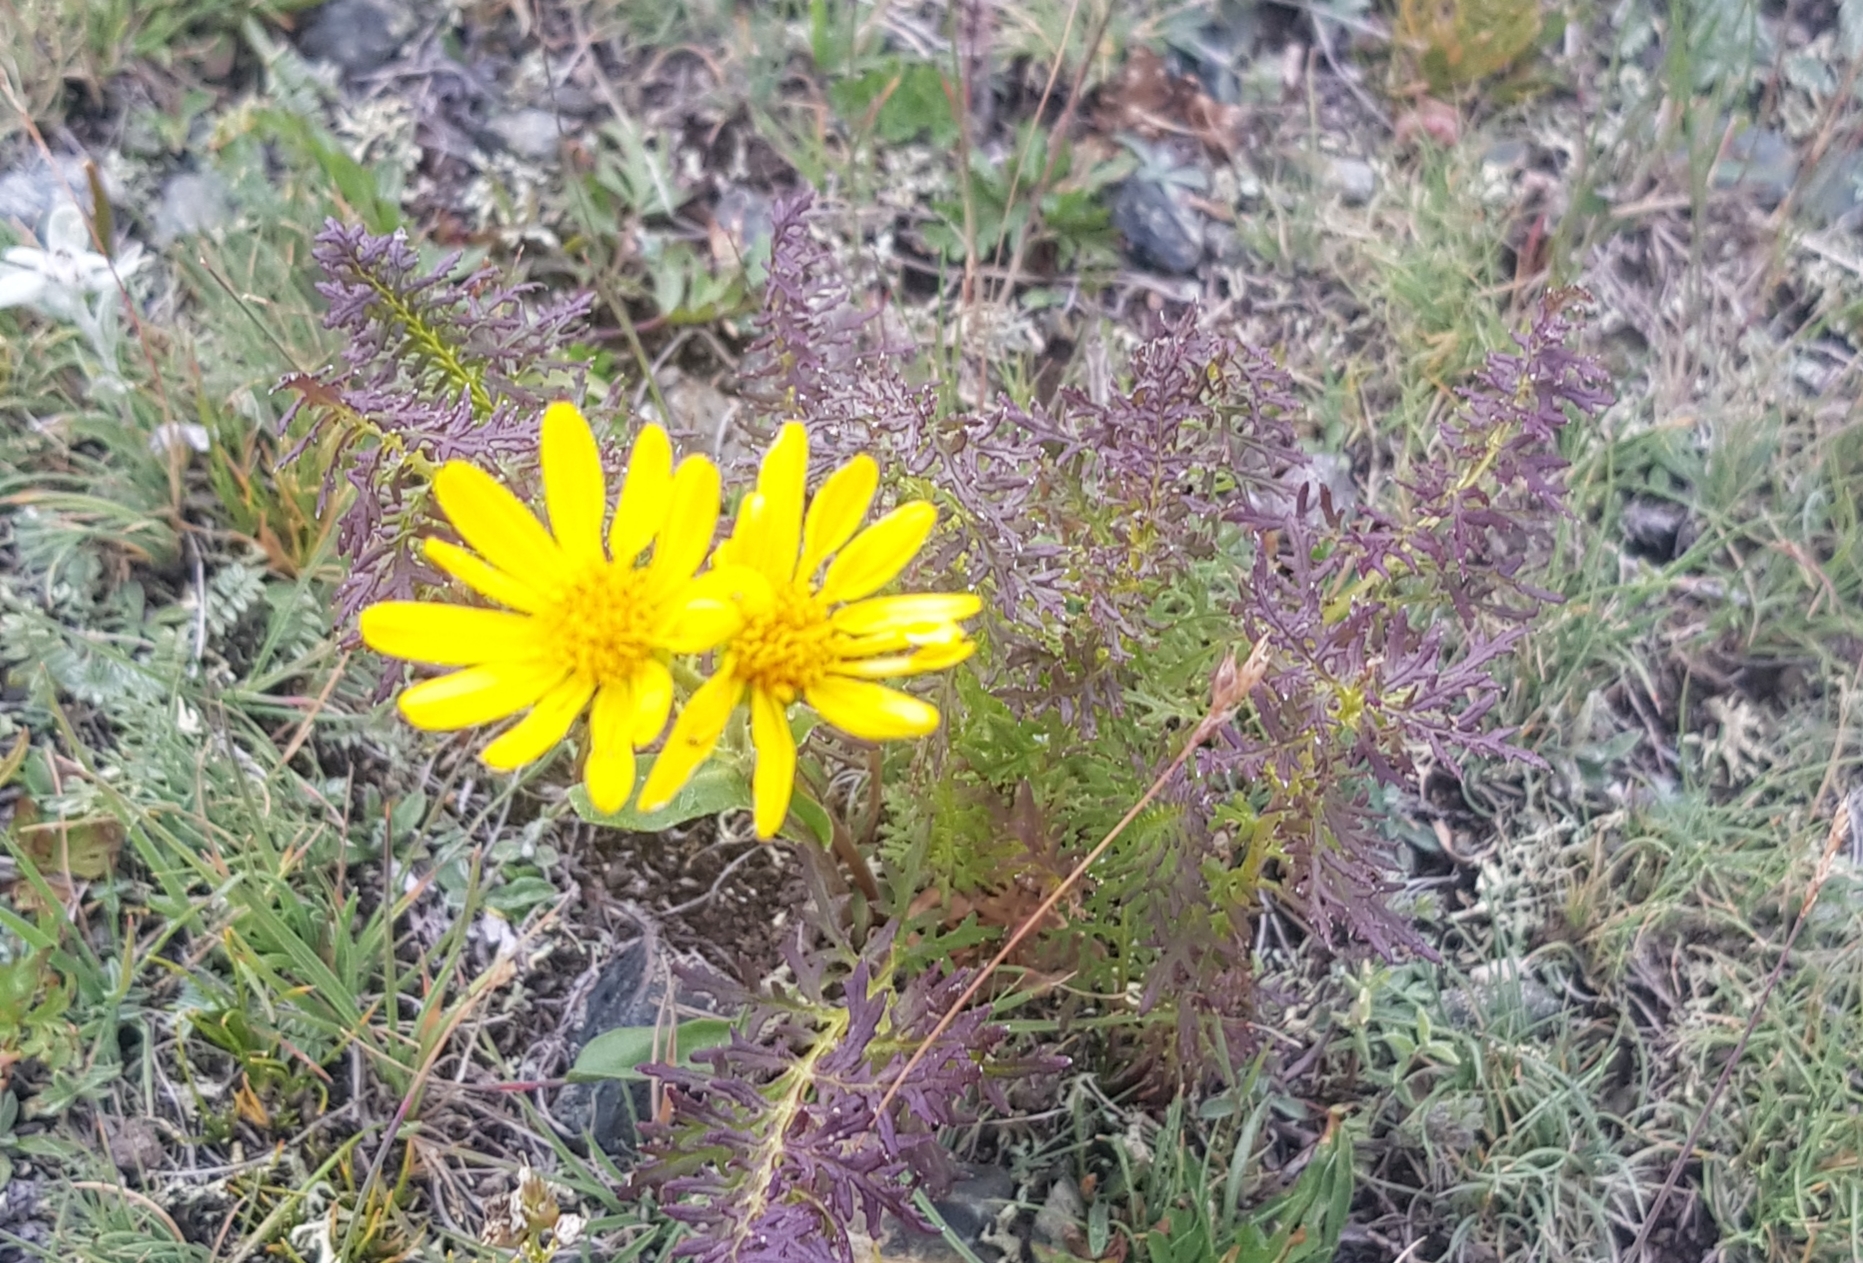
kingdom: Plantae
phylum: Tracheophyta
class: Magnoliopsida
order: Asterales
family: Asteraceae
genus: Tephroseris
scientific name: Tephroseris integrifolia
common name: Field fleawort
